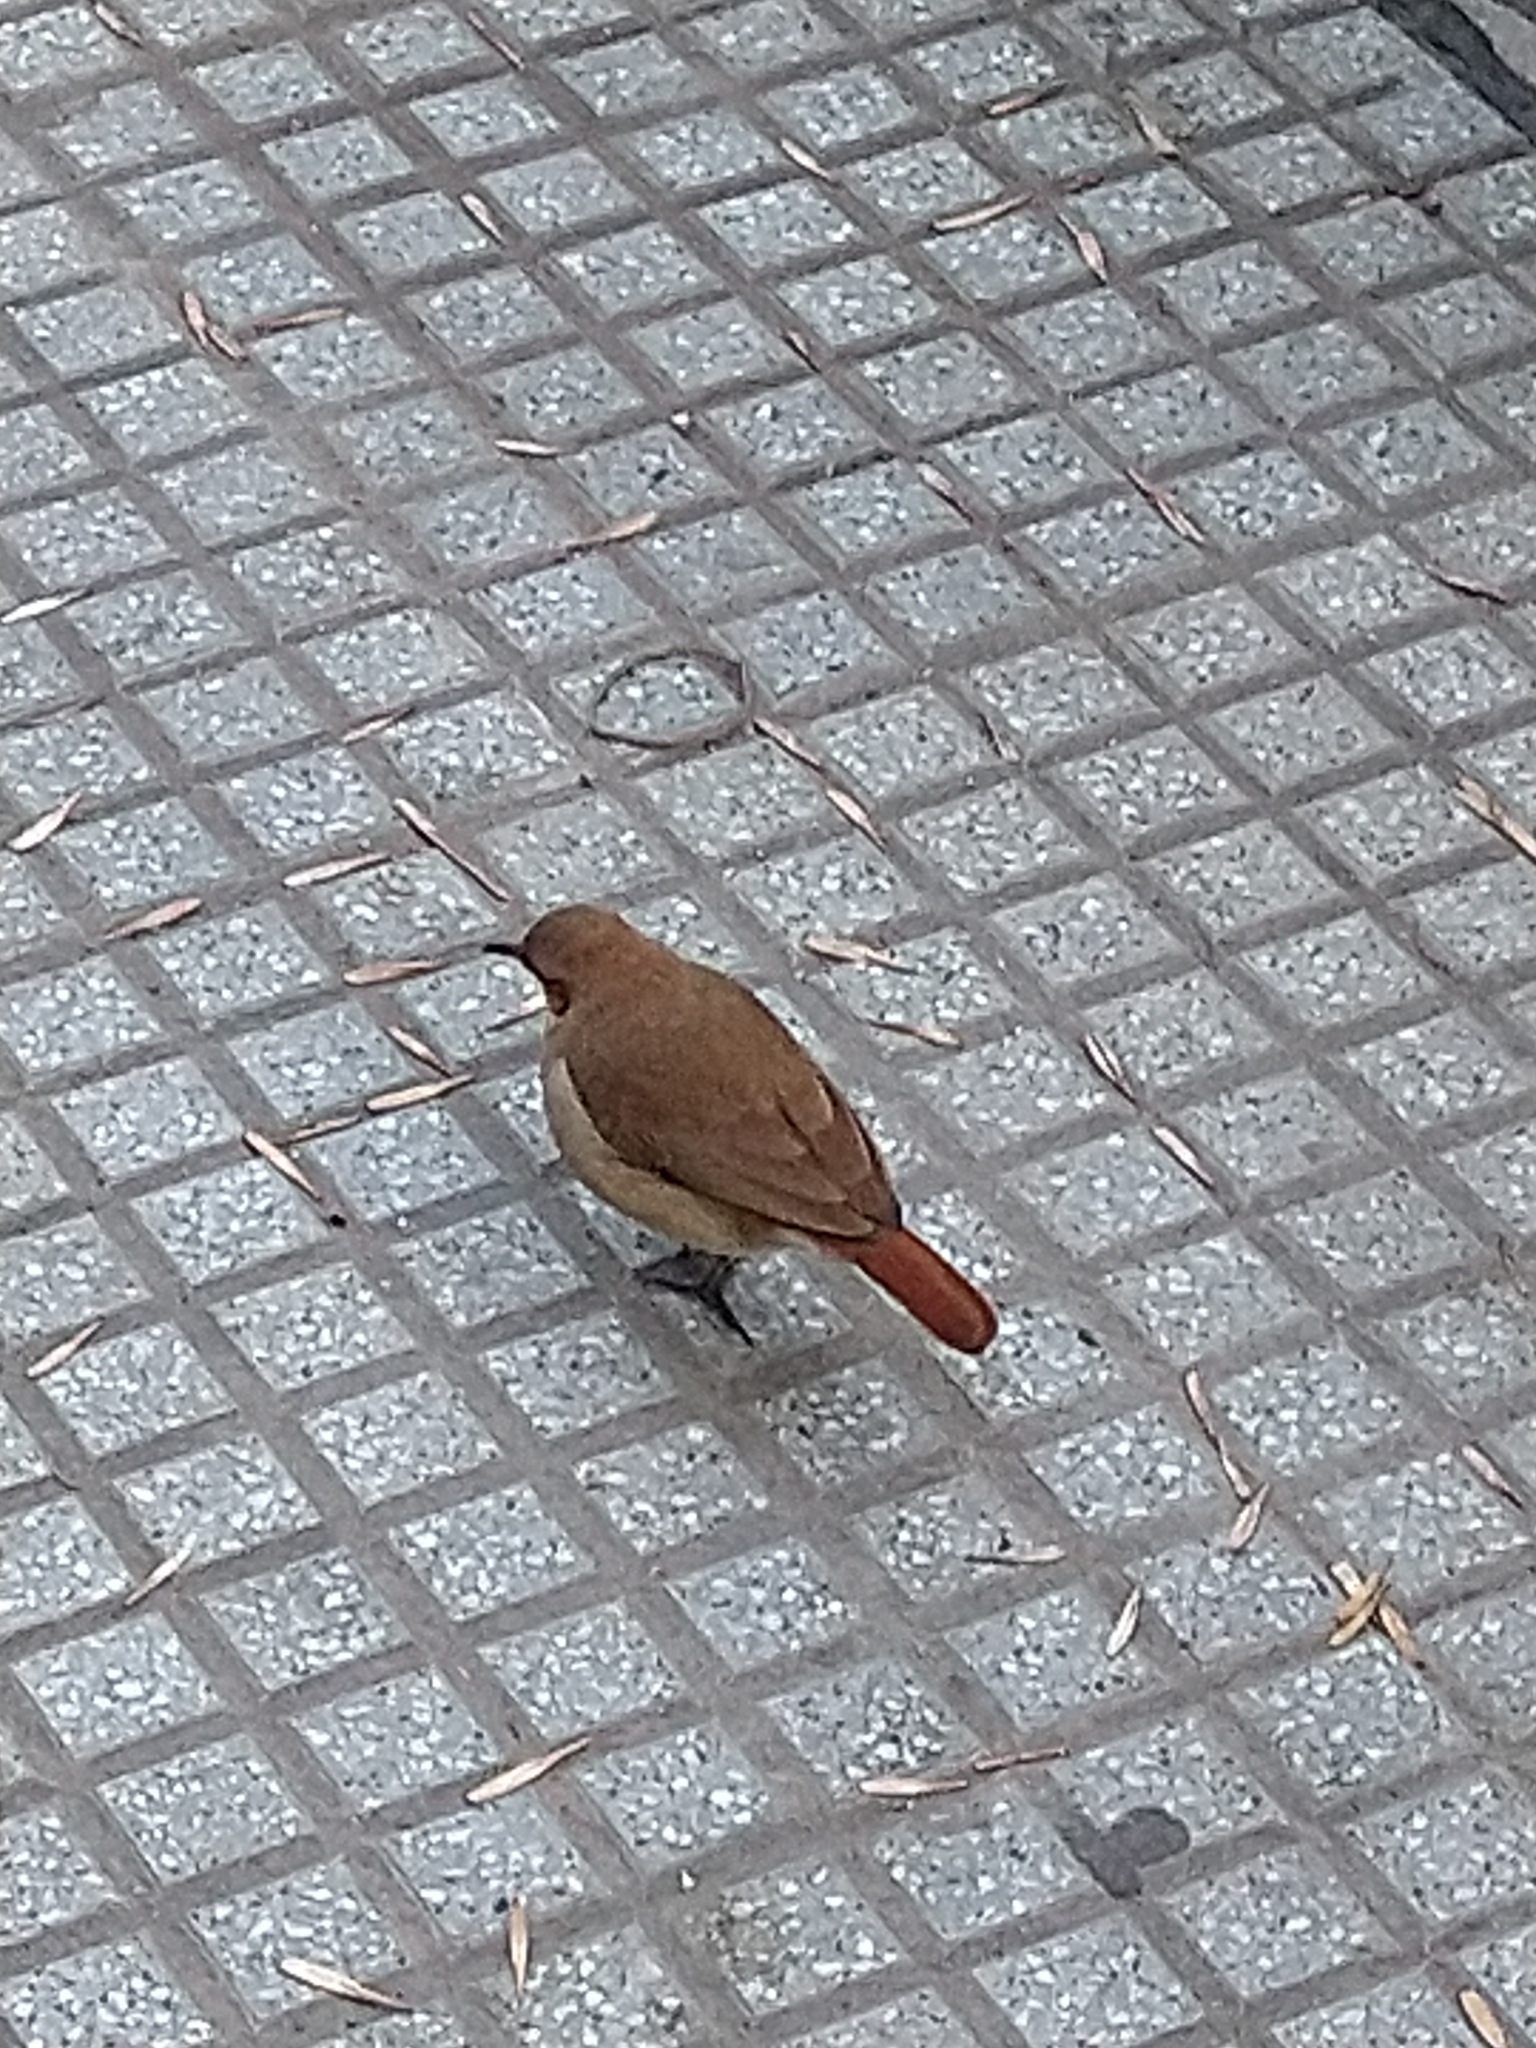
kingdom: Animalia
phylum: Chordata
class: Aves
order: Passeriformes
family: Furnariidae
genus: Furnarius
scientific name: Furnarius rufus
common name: Rufous hornero
